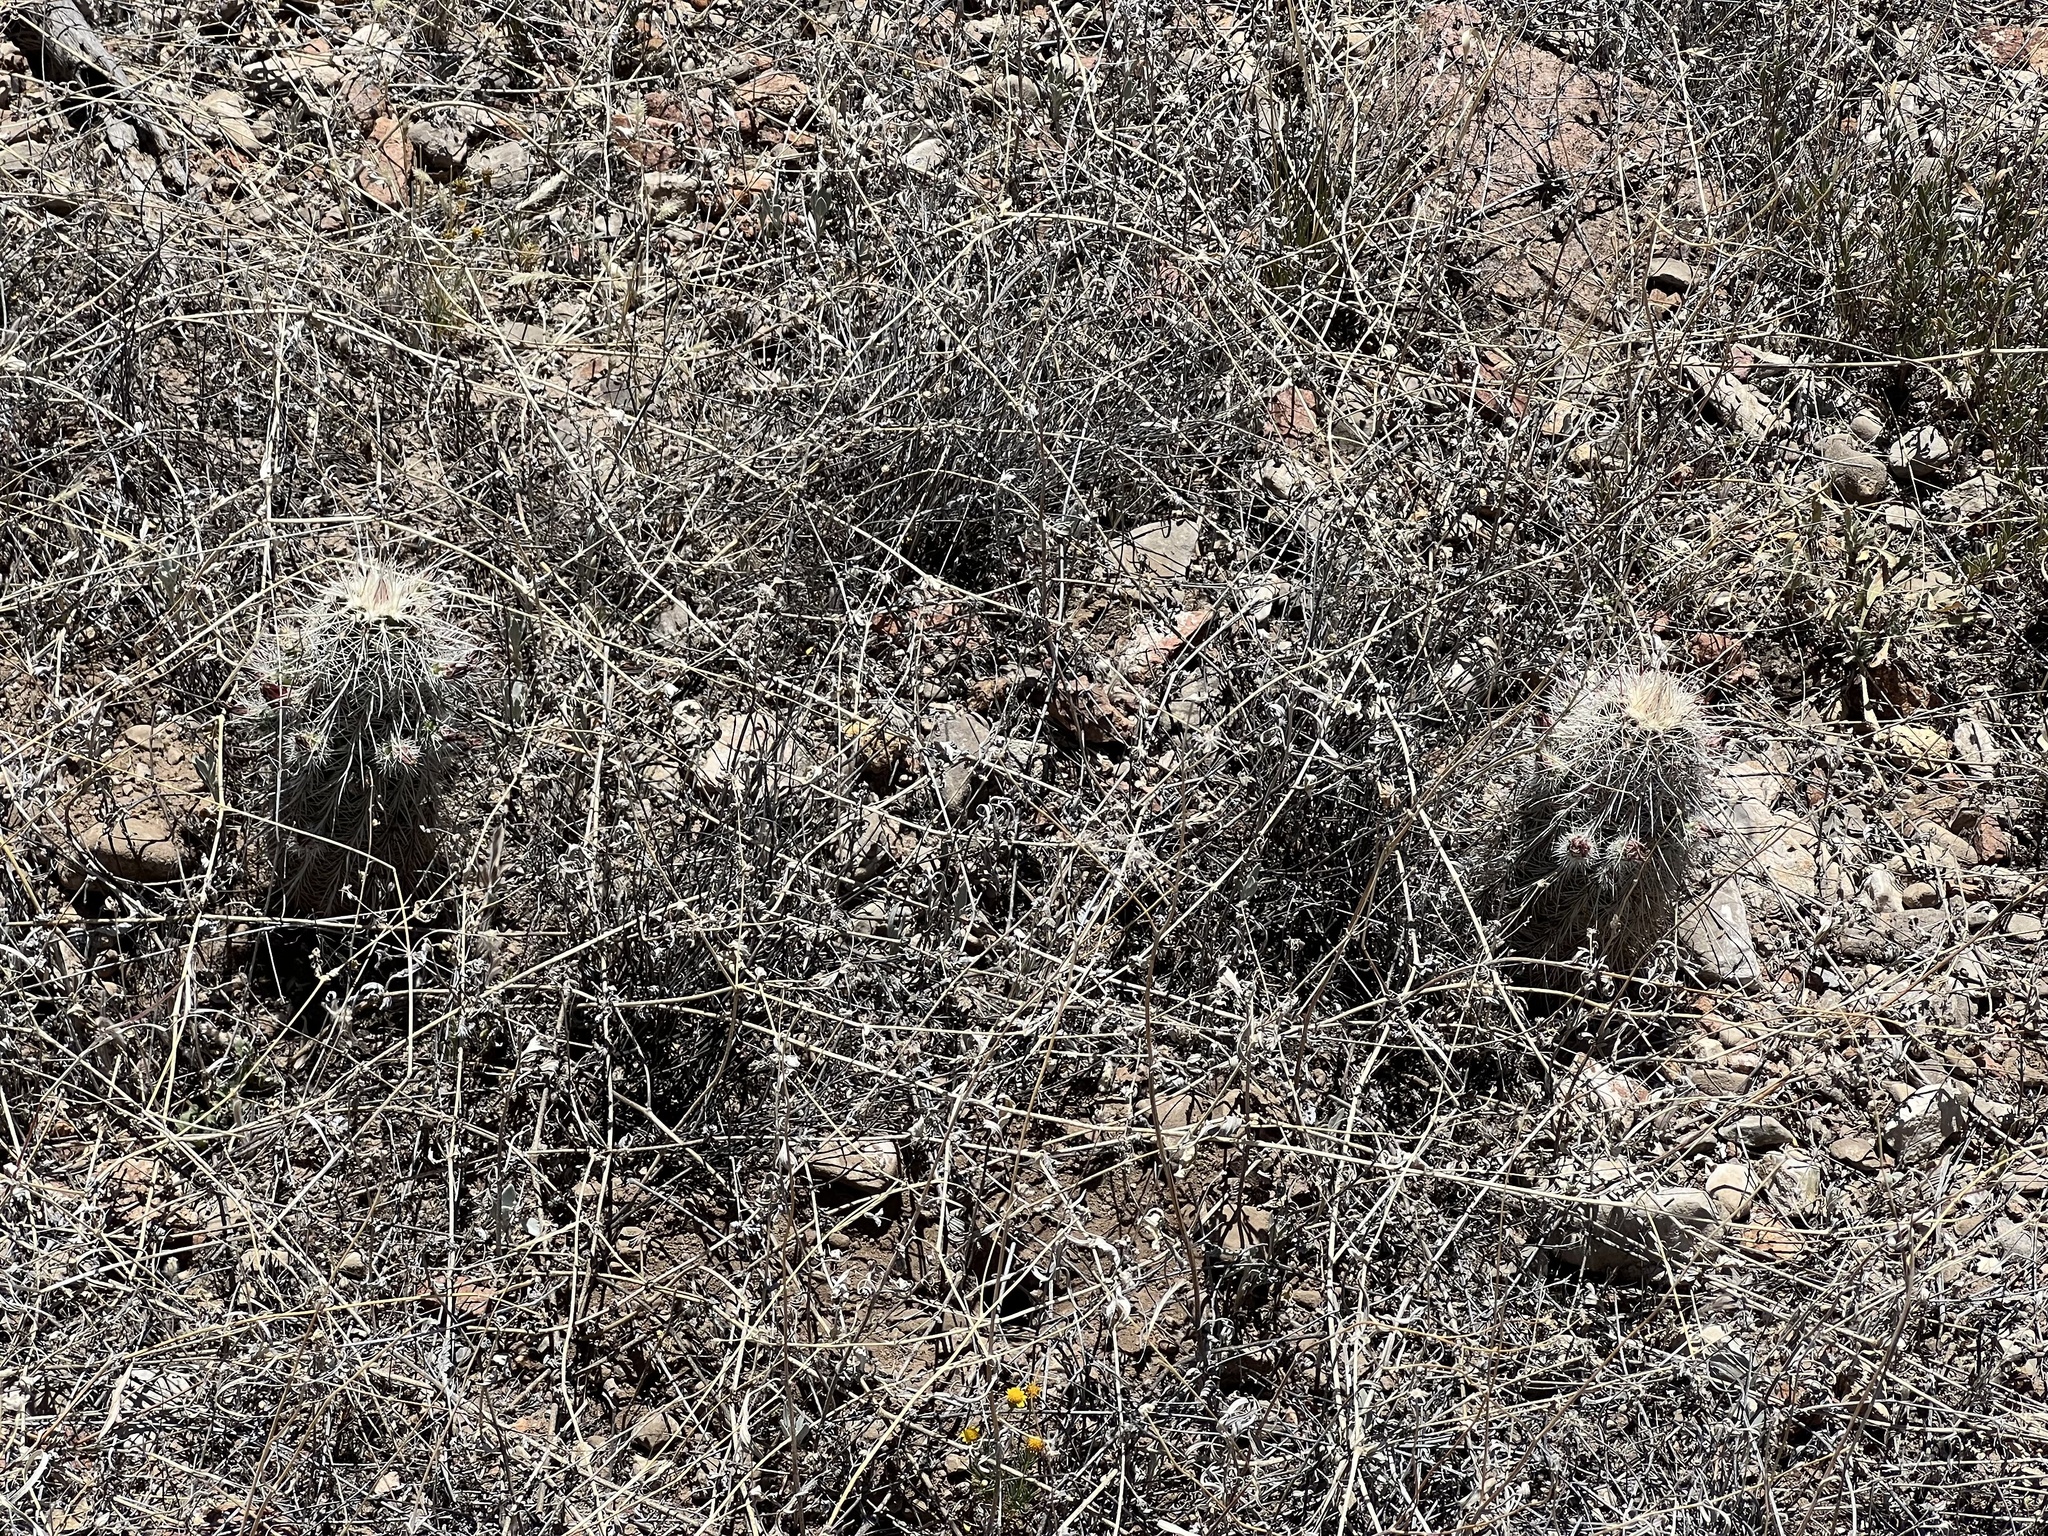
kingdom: Plantae
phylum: Tracheophyta
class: Magnoliopsida
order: Caryophyllales
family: Cactaceae
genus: Echinocereus
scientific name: Echinocereus viridiflorus
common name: Nylon hedgehog cactus
